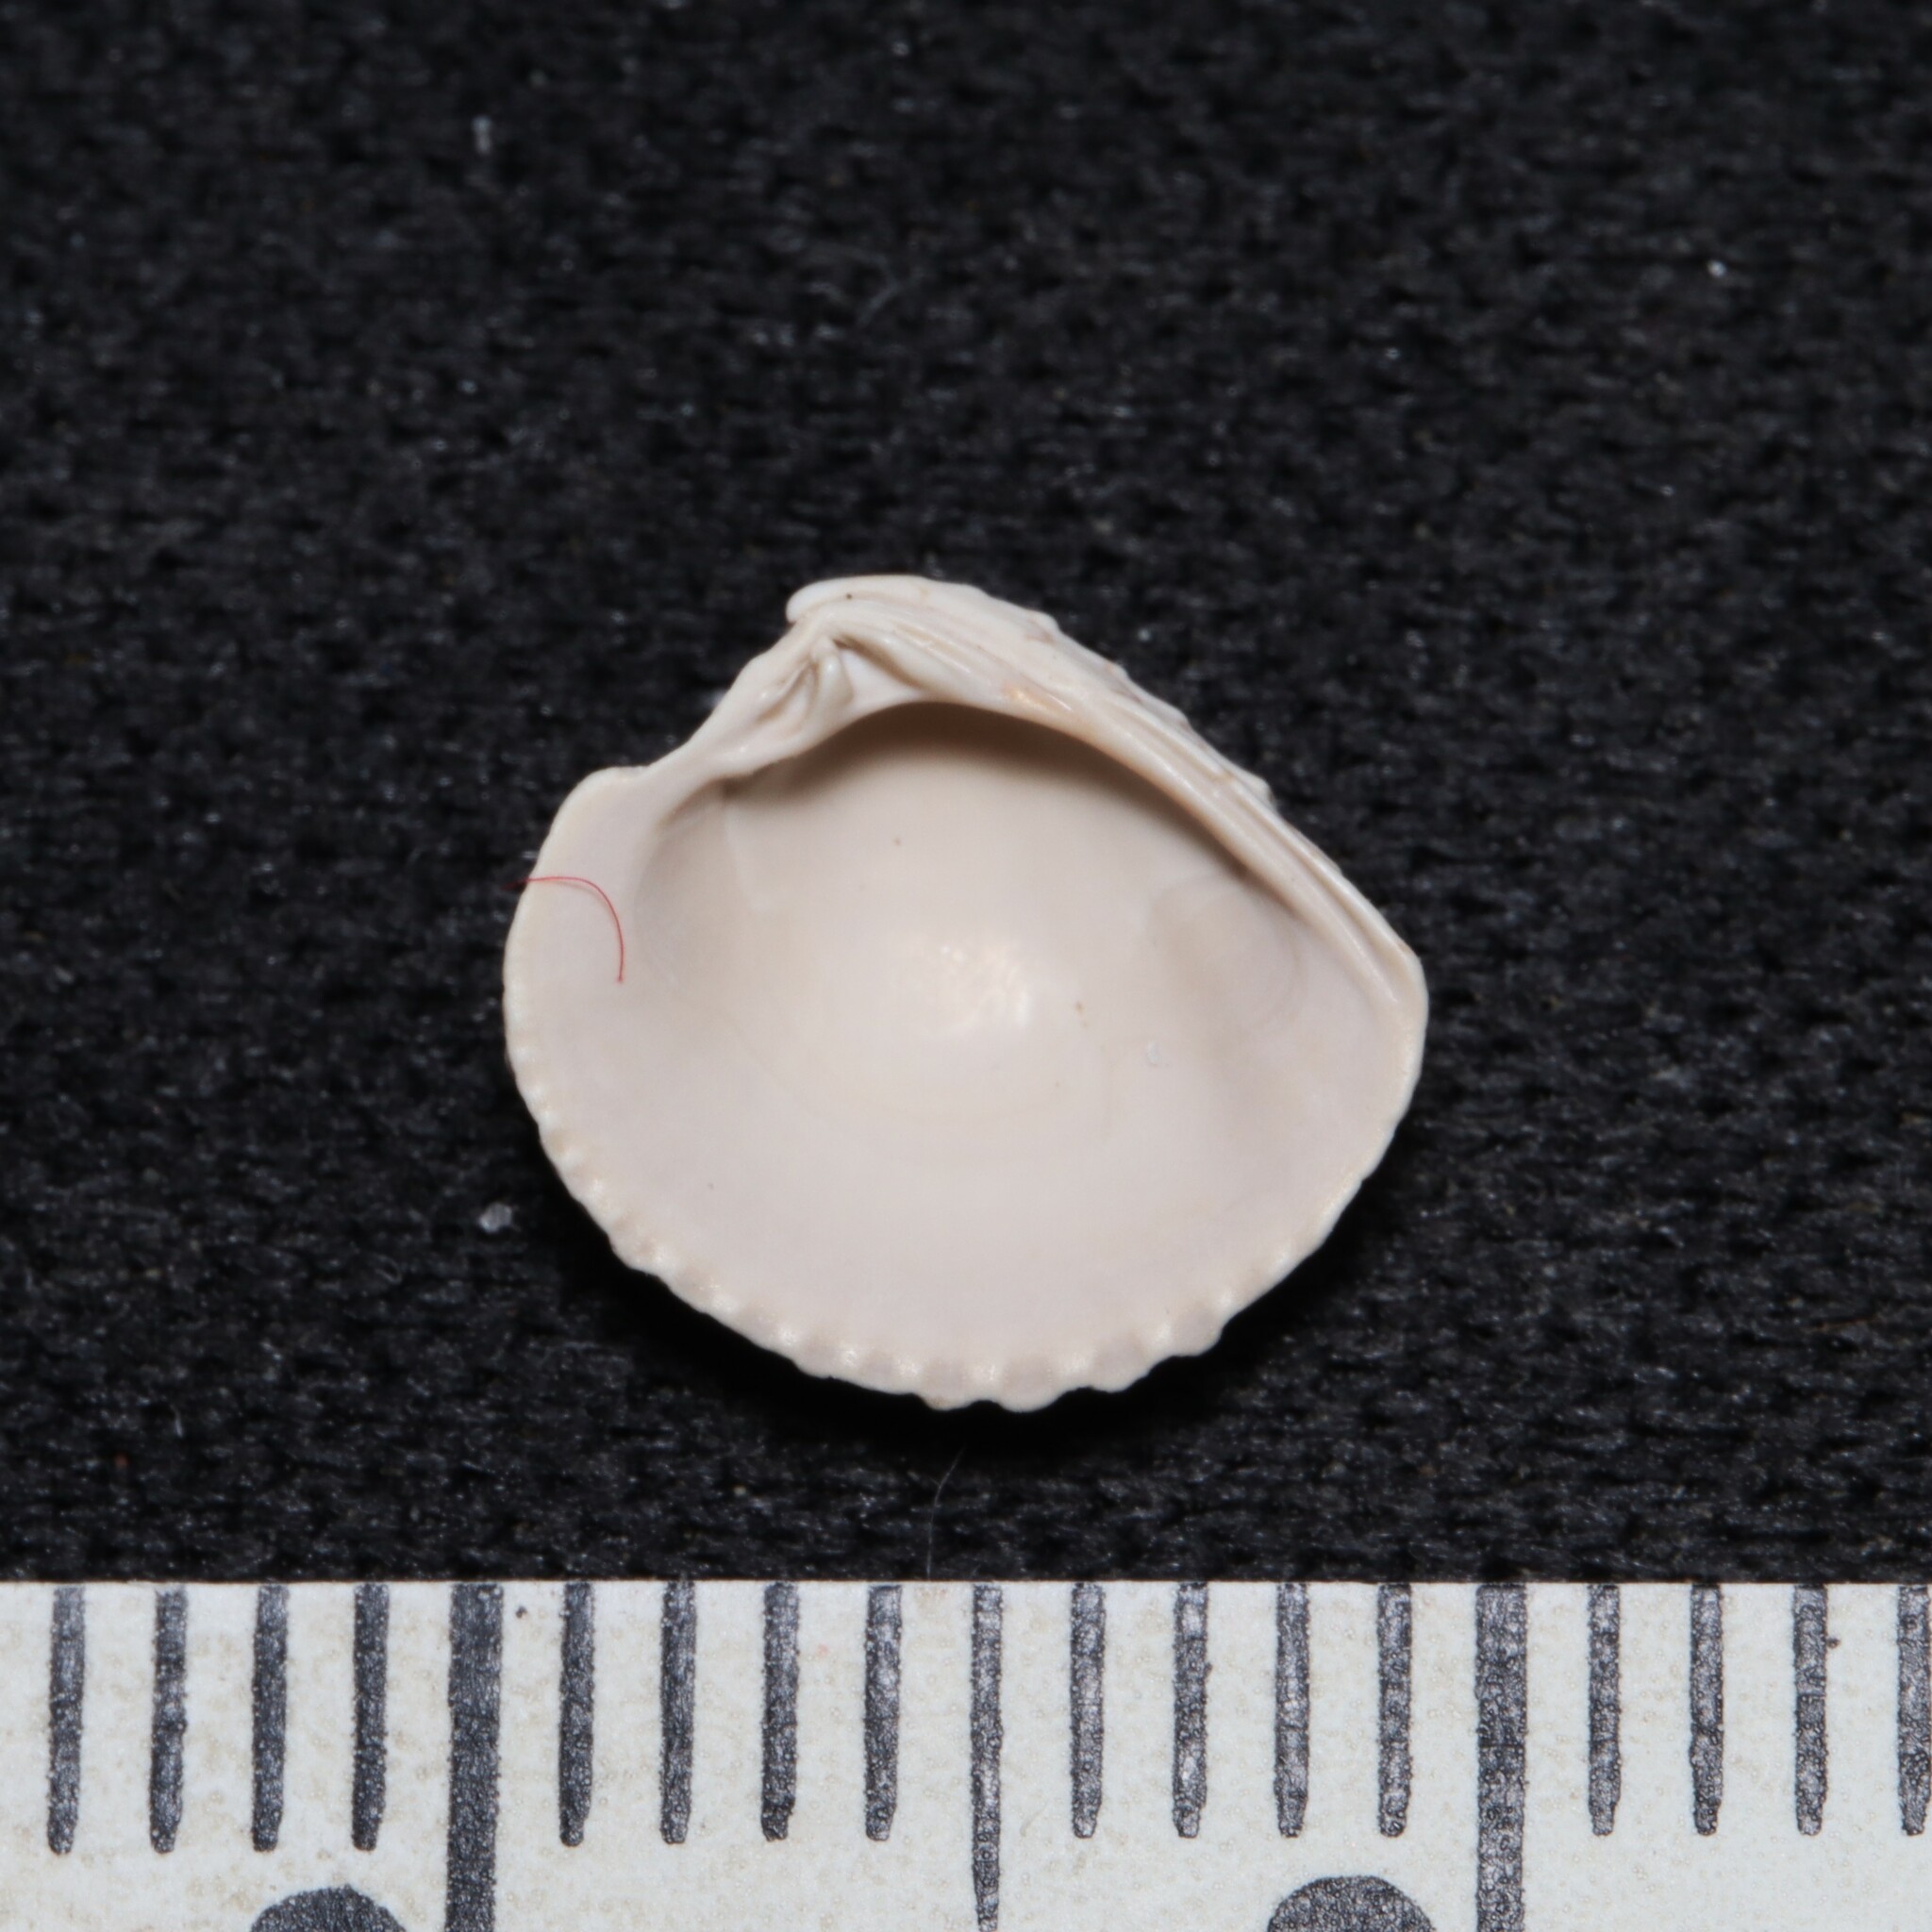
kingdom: Animalia
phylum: Mollusca
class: Bivalvia
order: Venerida
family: Veneridae
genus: Chione
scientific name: Chione elevata
